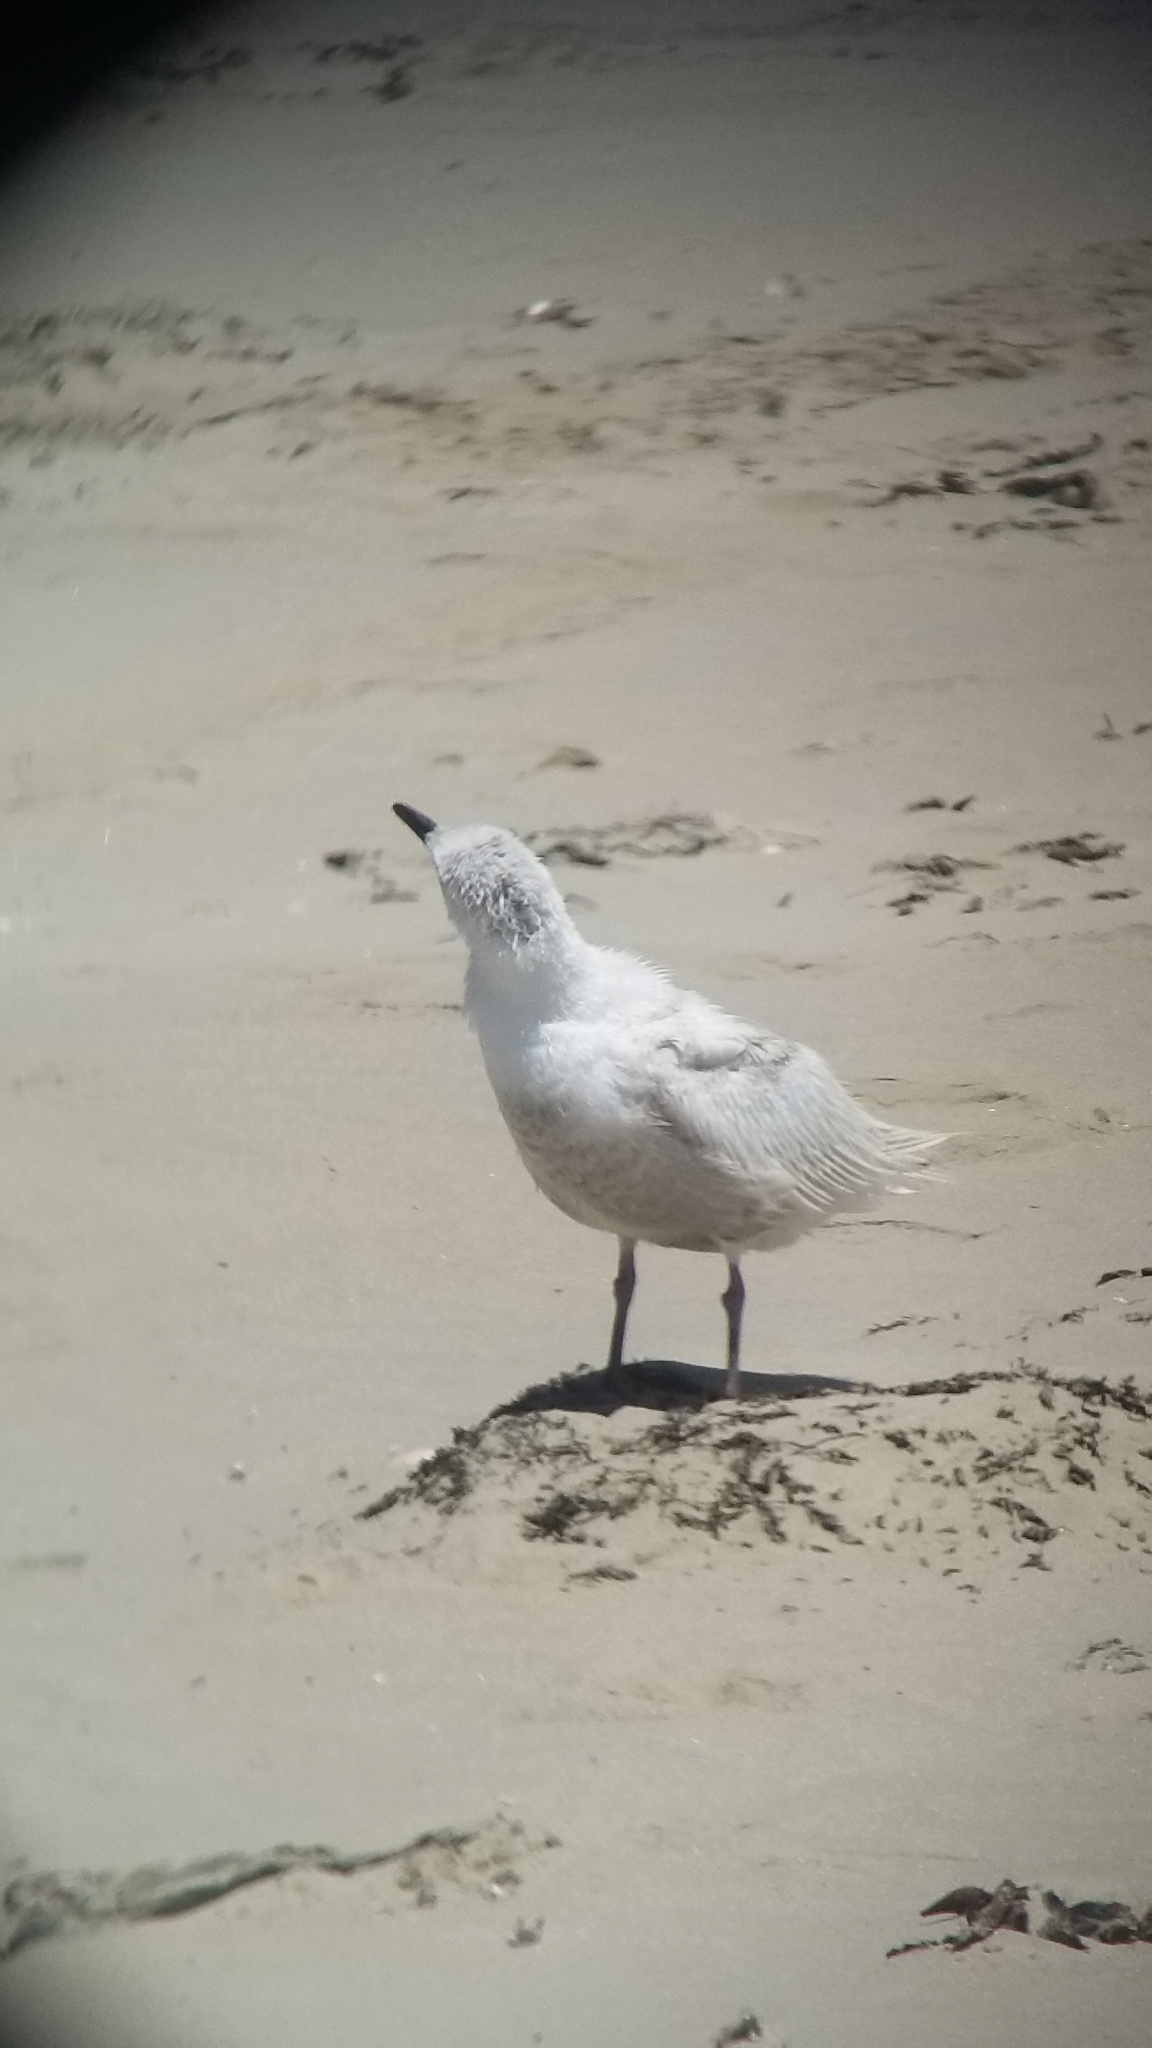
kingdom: Animalia
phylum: Chordata
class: Aves
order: Charadriiformes
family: Laridae
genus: Larus
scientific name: Larus glaucescens
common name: Glaucous-winged gull
